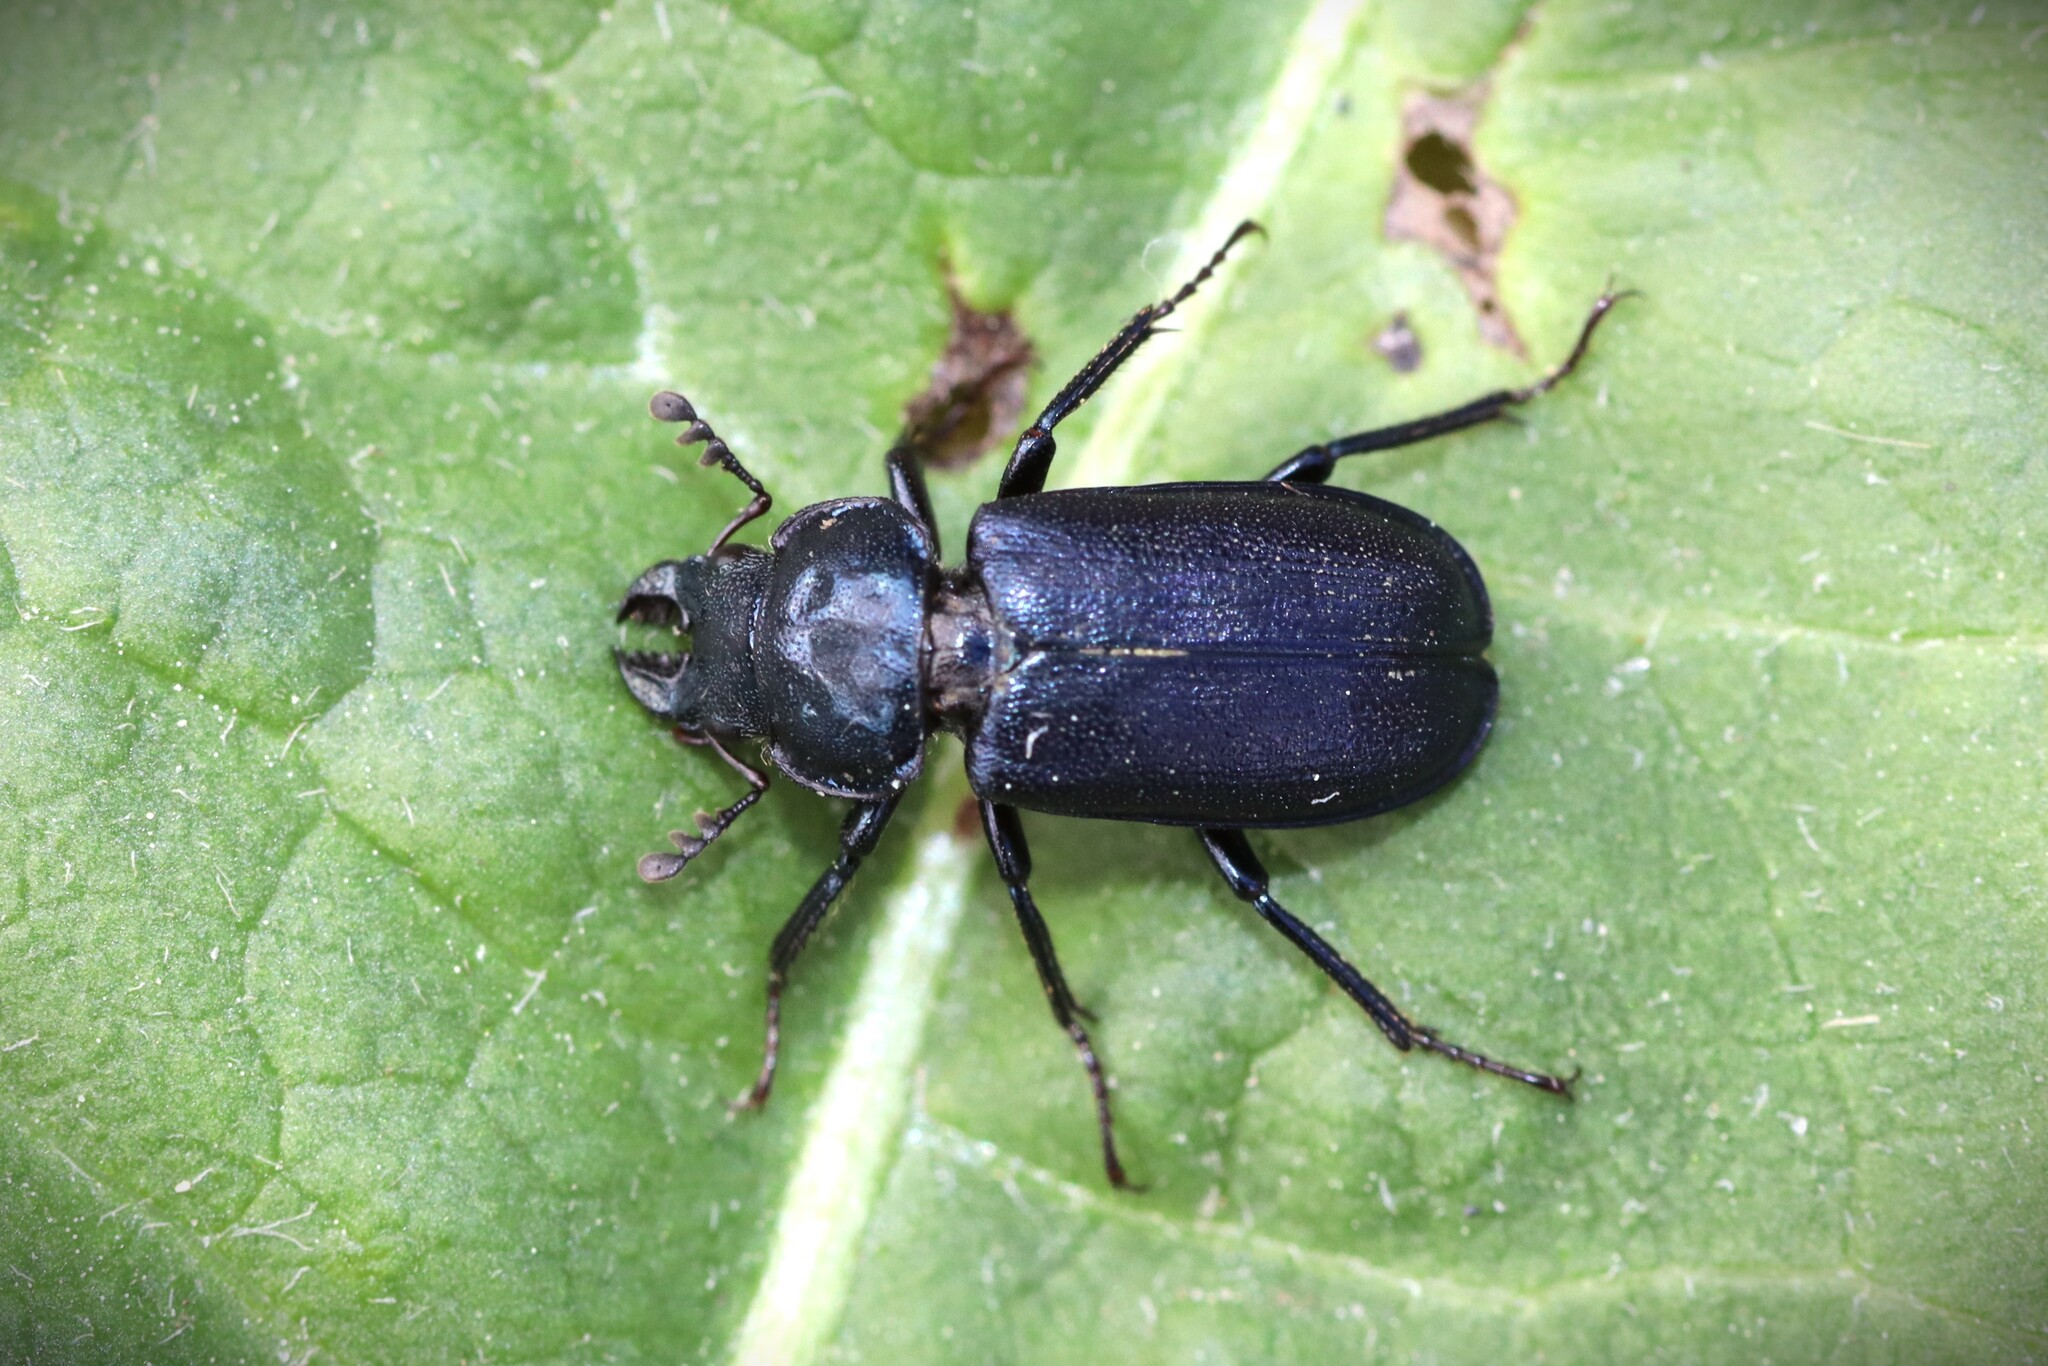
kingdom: Animalia
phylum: Arthropoda
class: Insecta
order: Coleoptera
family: Lucanidae
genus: Platycerus
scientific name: Platycerus caraboides
